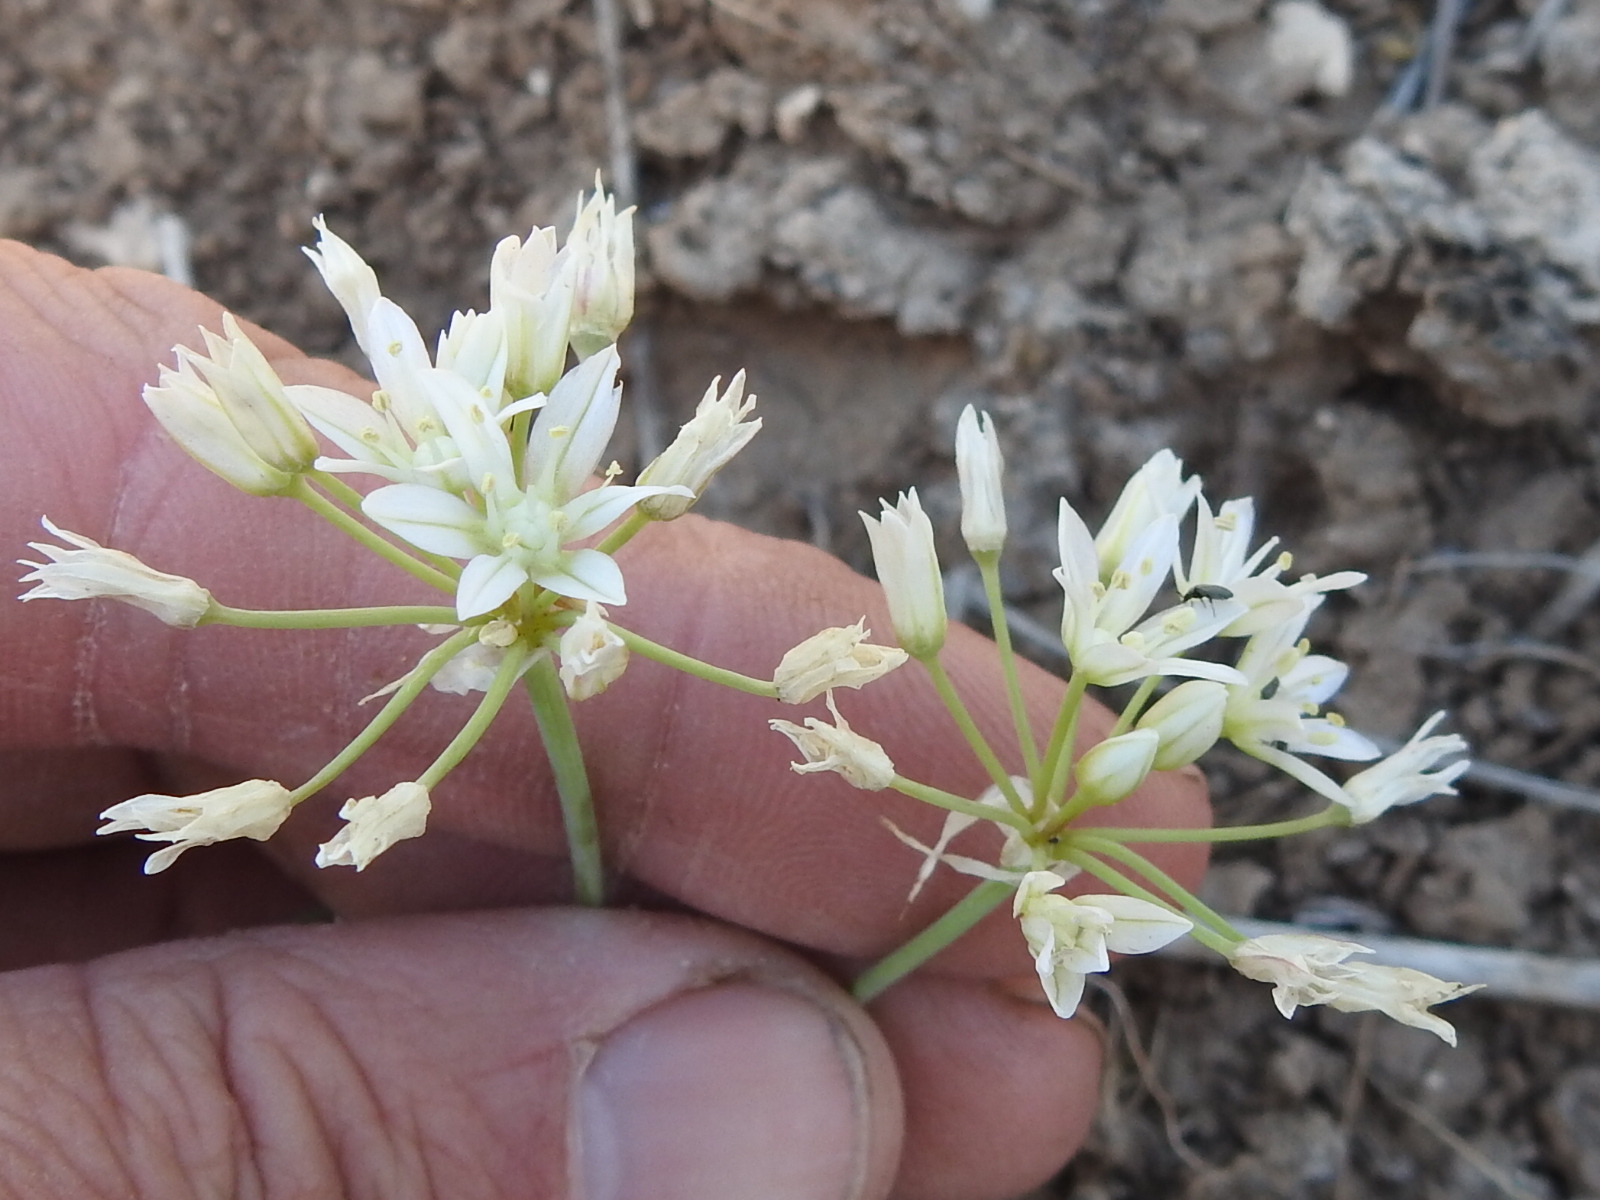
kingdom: Plantae
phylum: Tracheophyta
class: Liliopsida
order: Asparagales
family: Amaryllidaceae
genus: Allium
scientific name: Allium drummondii
